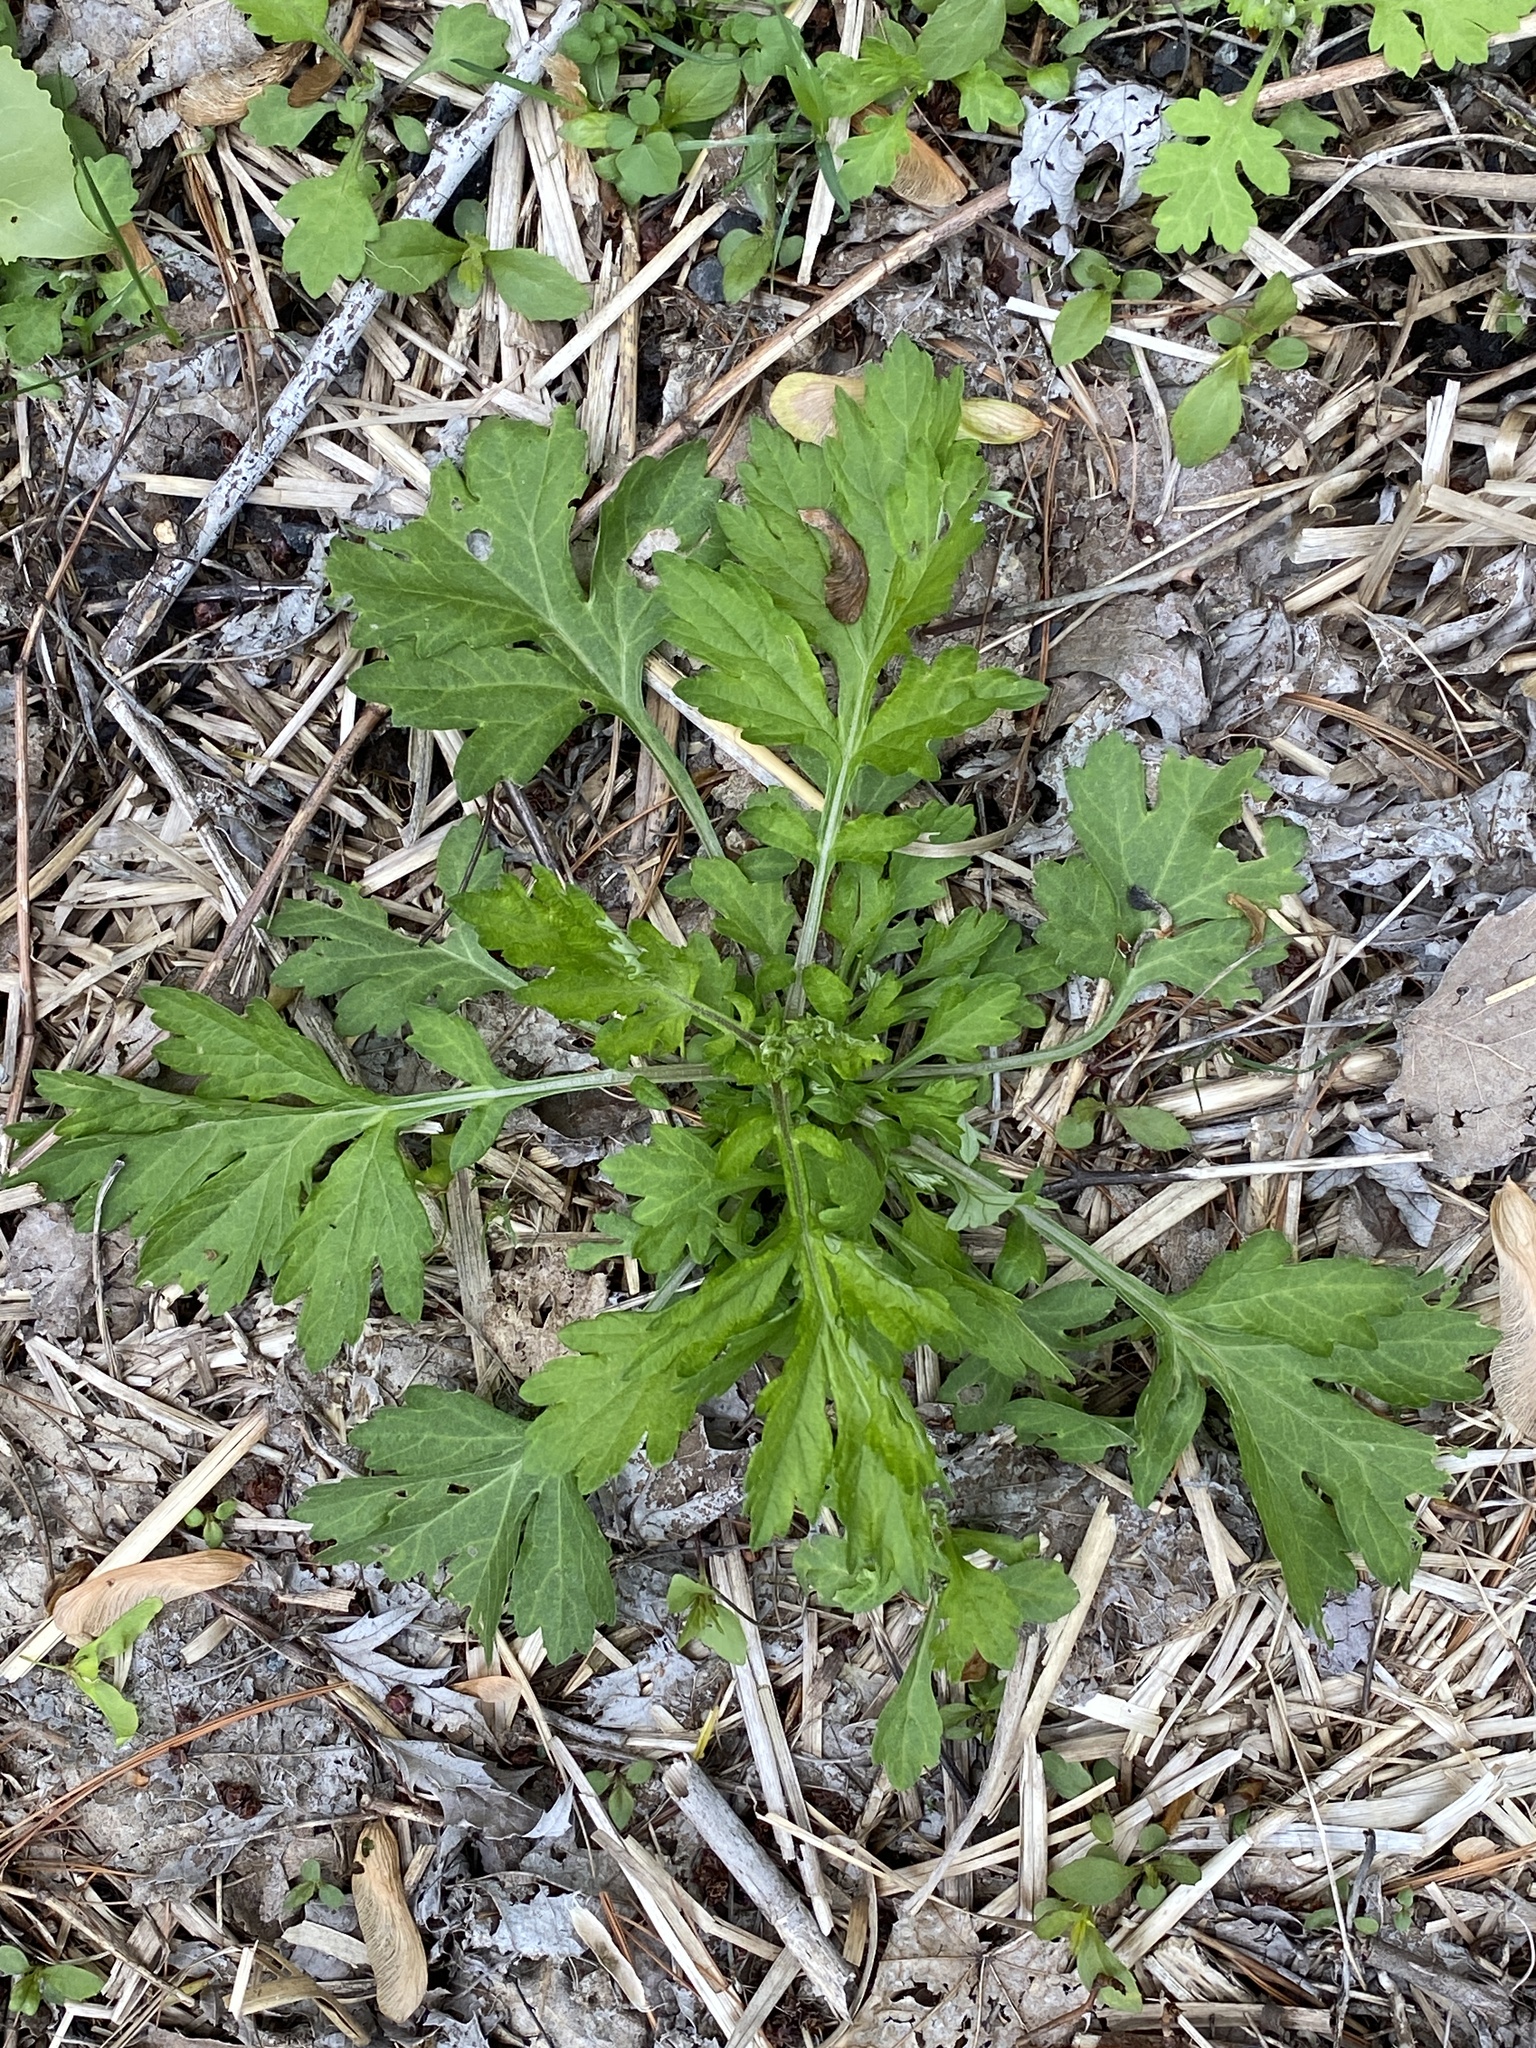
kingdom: Plantae
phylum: Tracheophyta
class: Magnoliopsida
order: Asterales
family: Asteraceae
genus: Artemisia
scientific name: Artemisia vulgaris
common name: Mugwort
